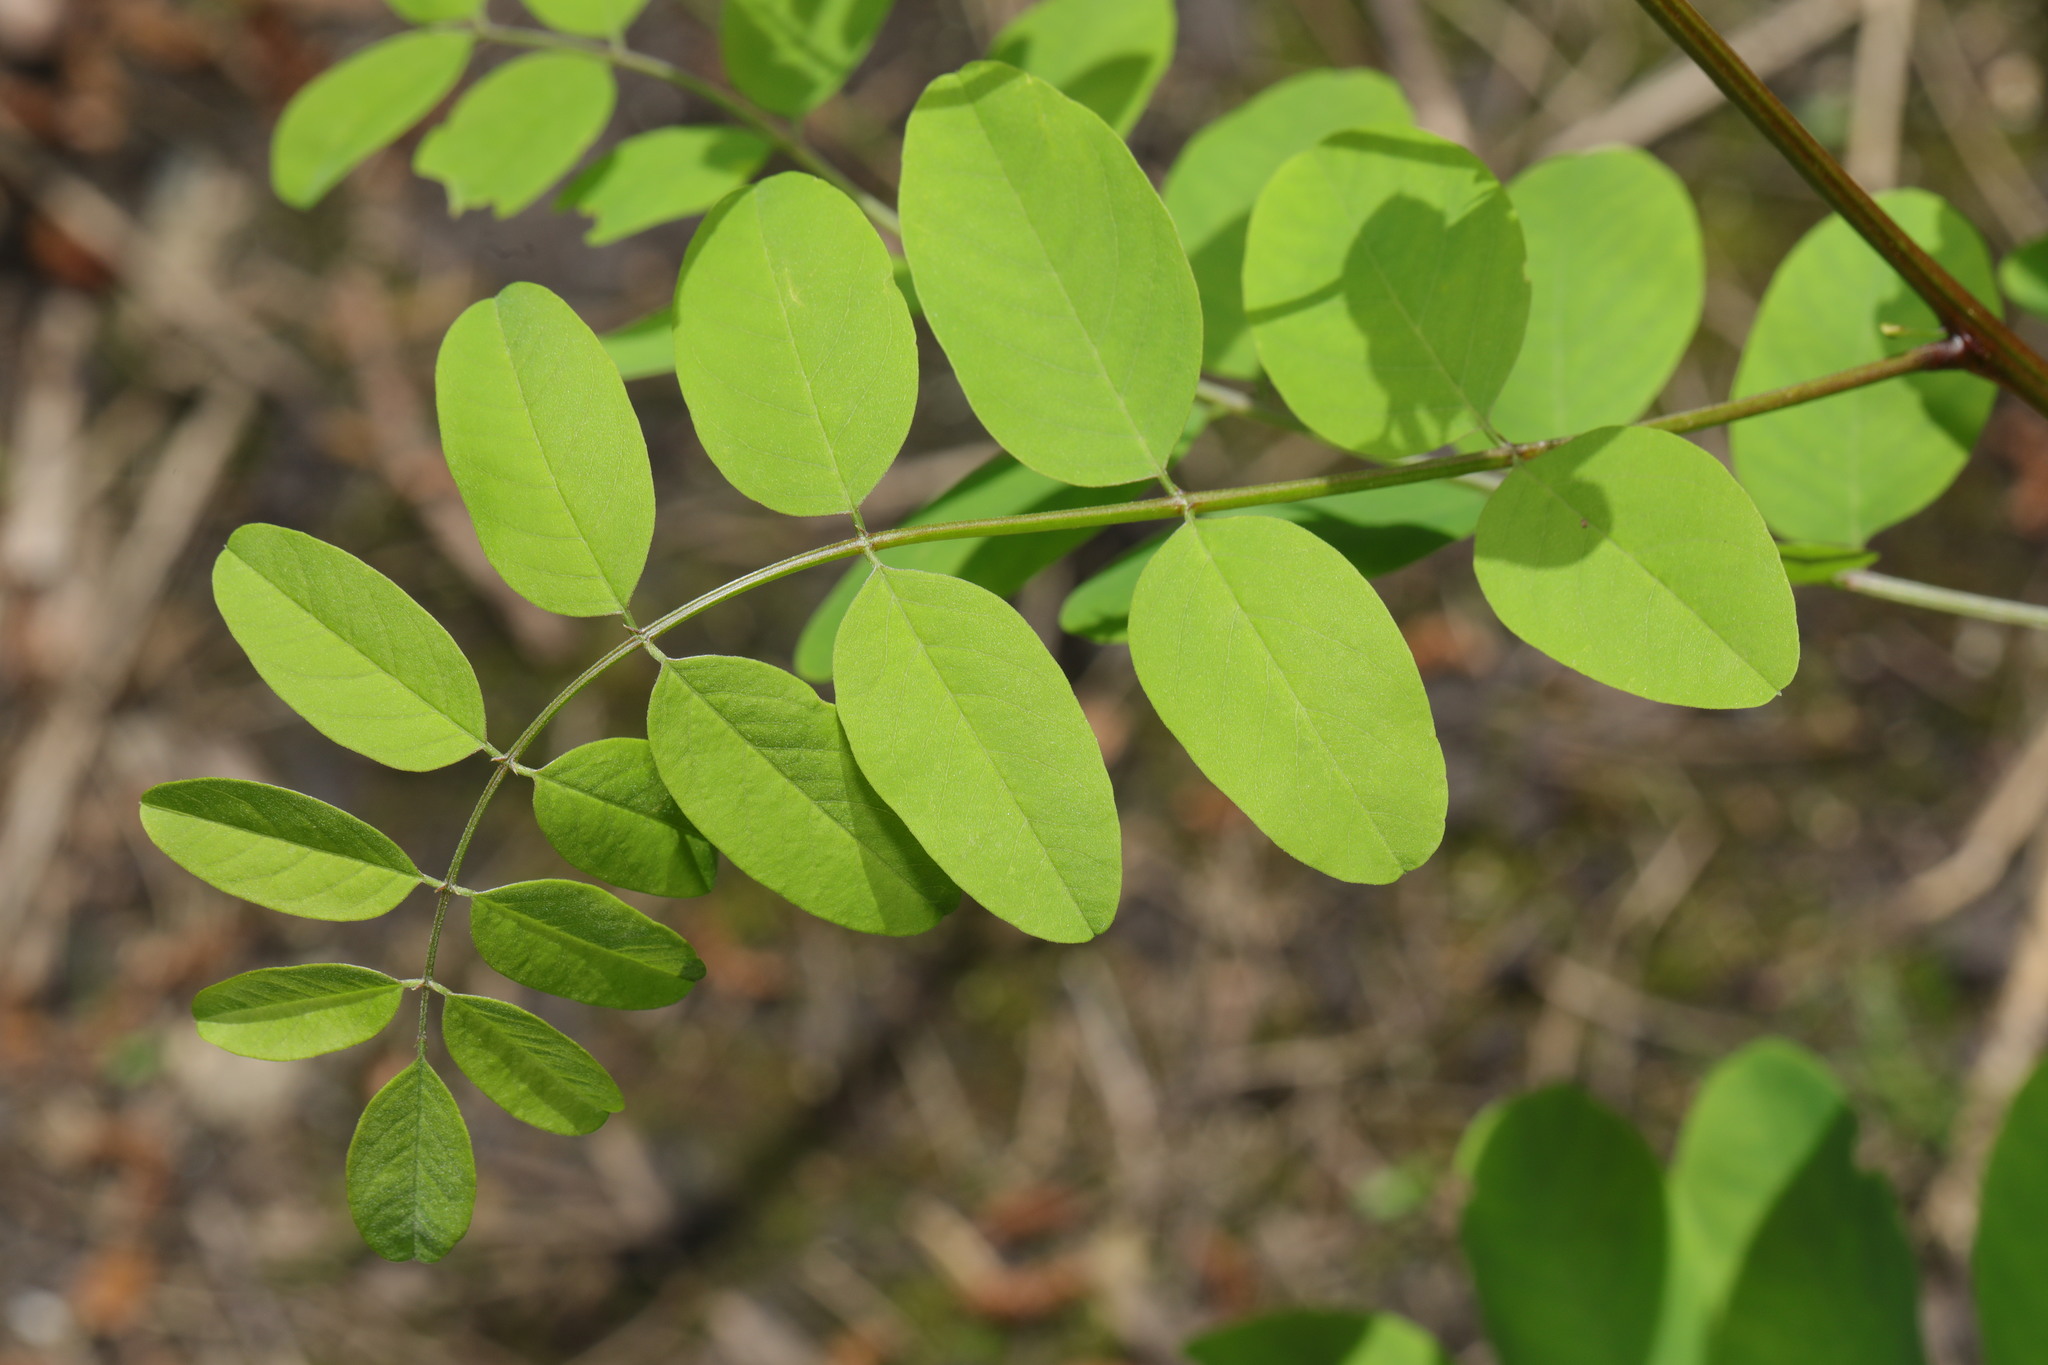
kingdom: Plantae
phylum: Tracheophyta
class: Magnoliopsida
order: Fabales
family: Fabaceae
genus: Robinia
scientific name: Robinia pseudoacacia
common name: Black locust
